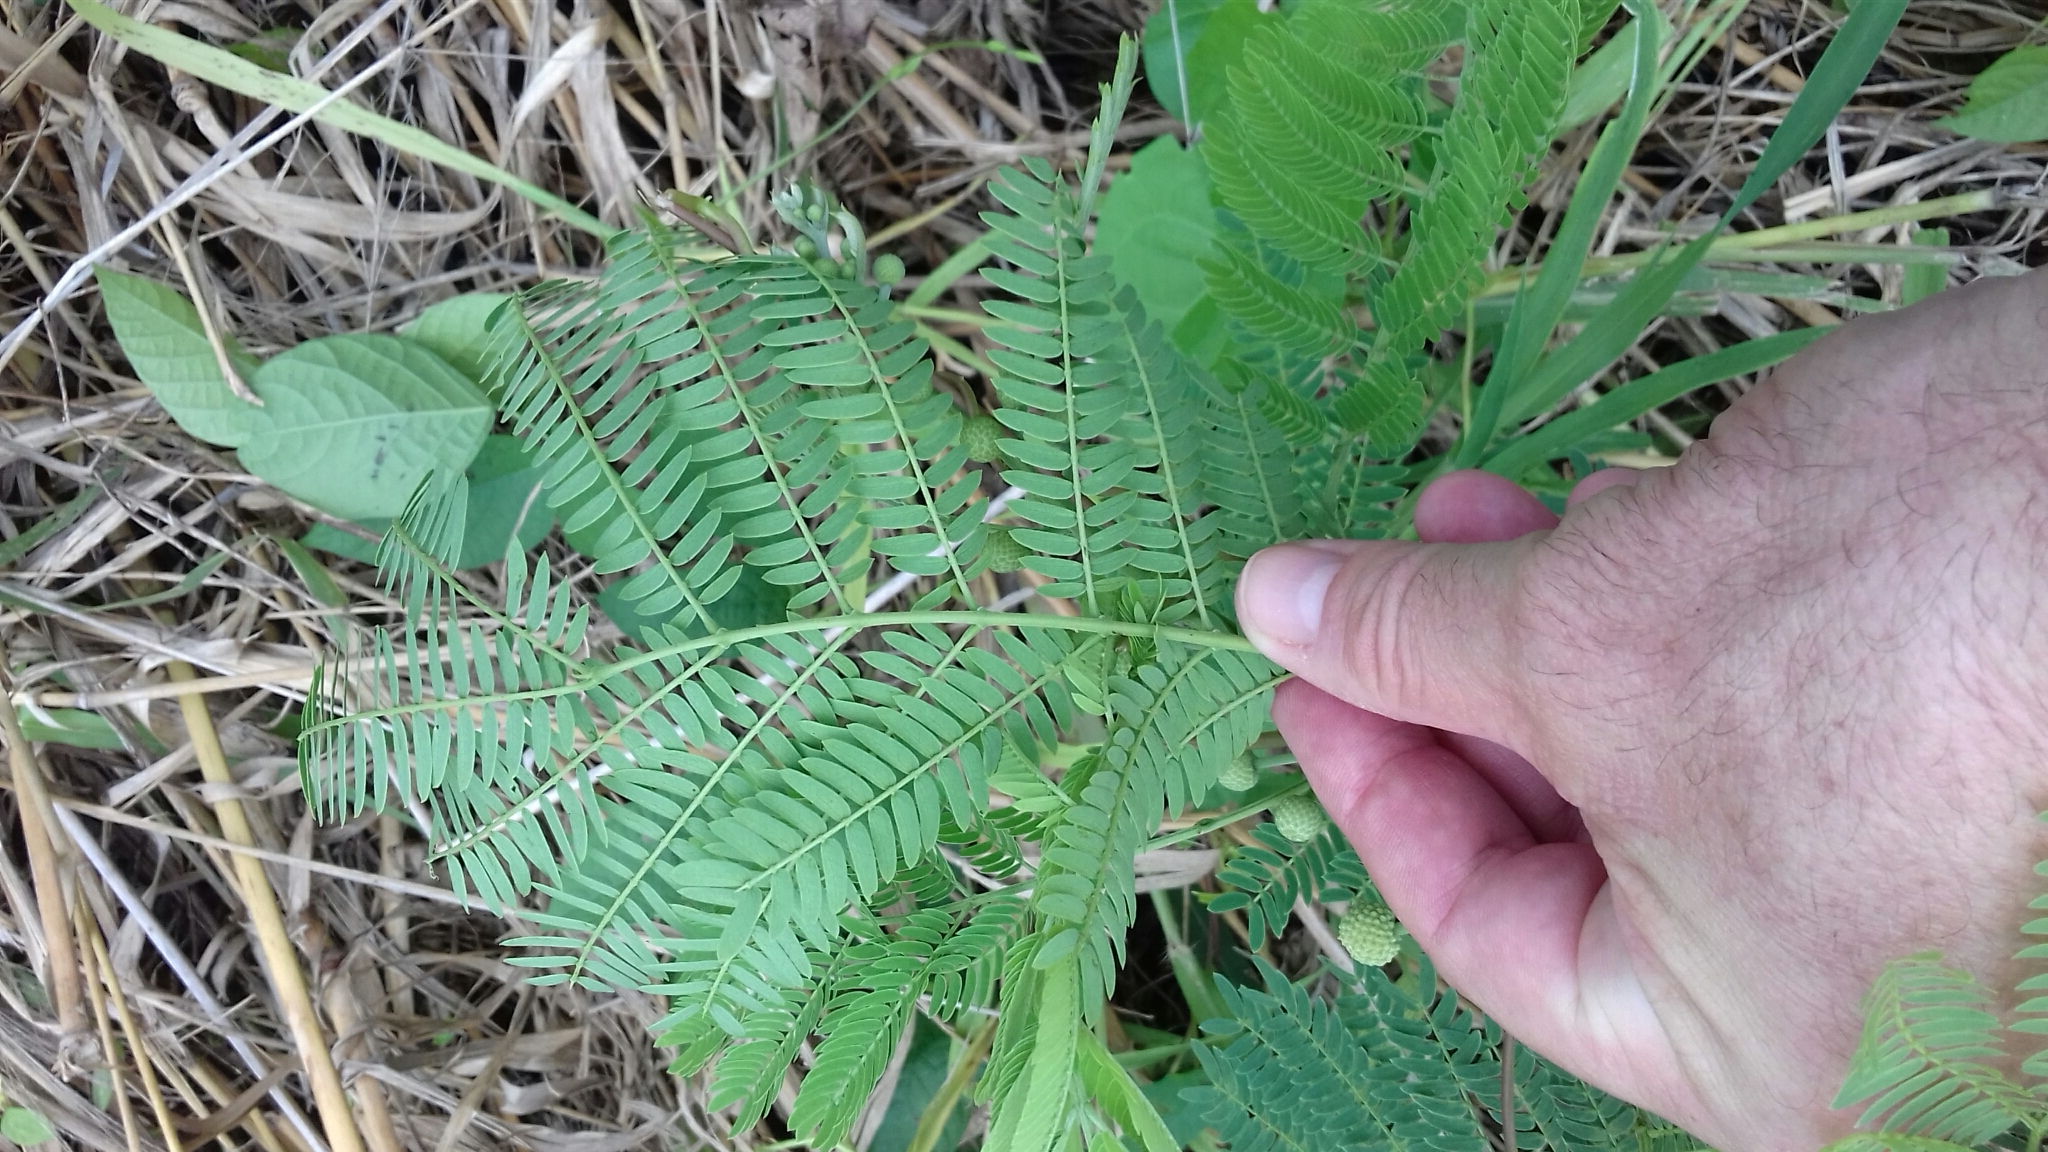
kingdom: Plantae
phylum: Tracheophyta
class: Magnoliopsida
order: Fabales
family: Fabaceae
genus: Leucaena
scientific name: Leucaena leucocephala
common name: White leadtree
